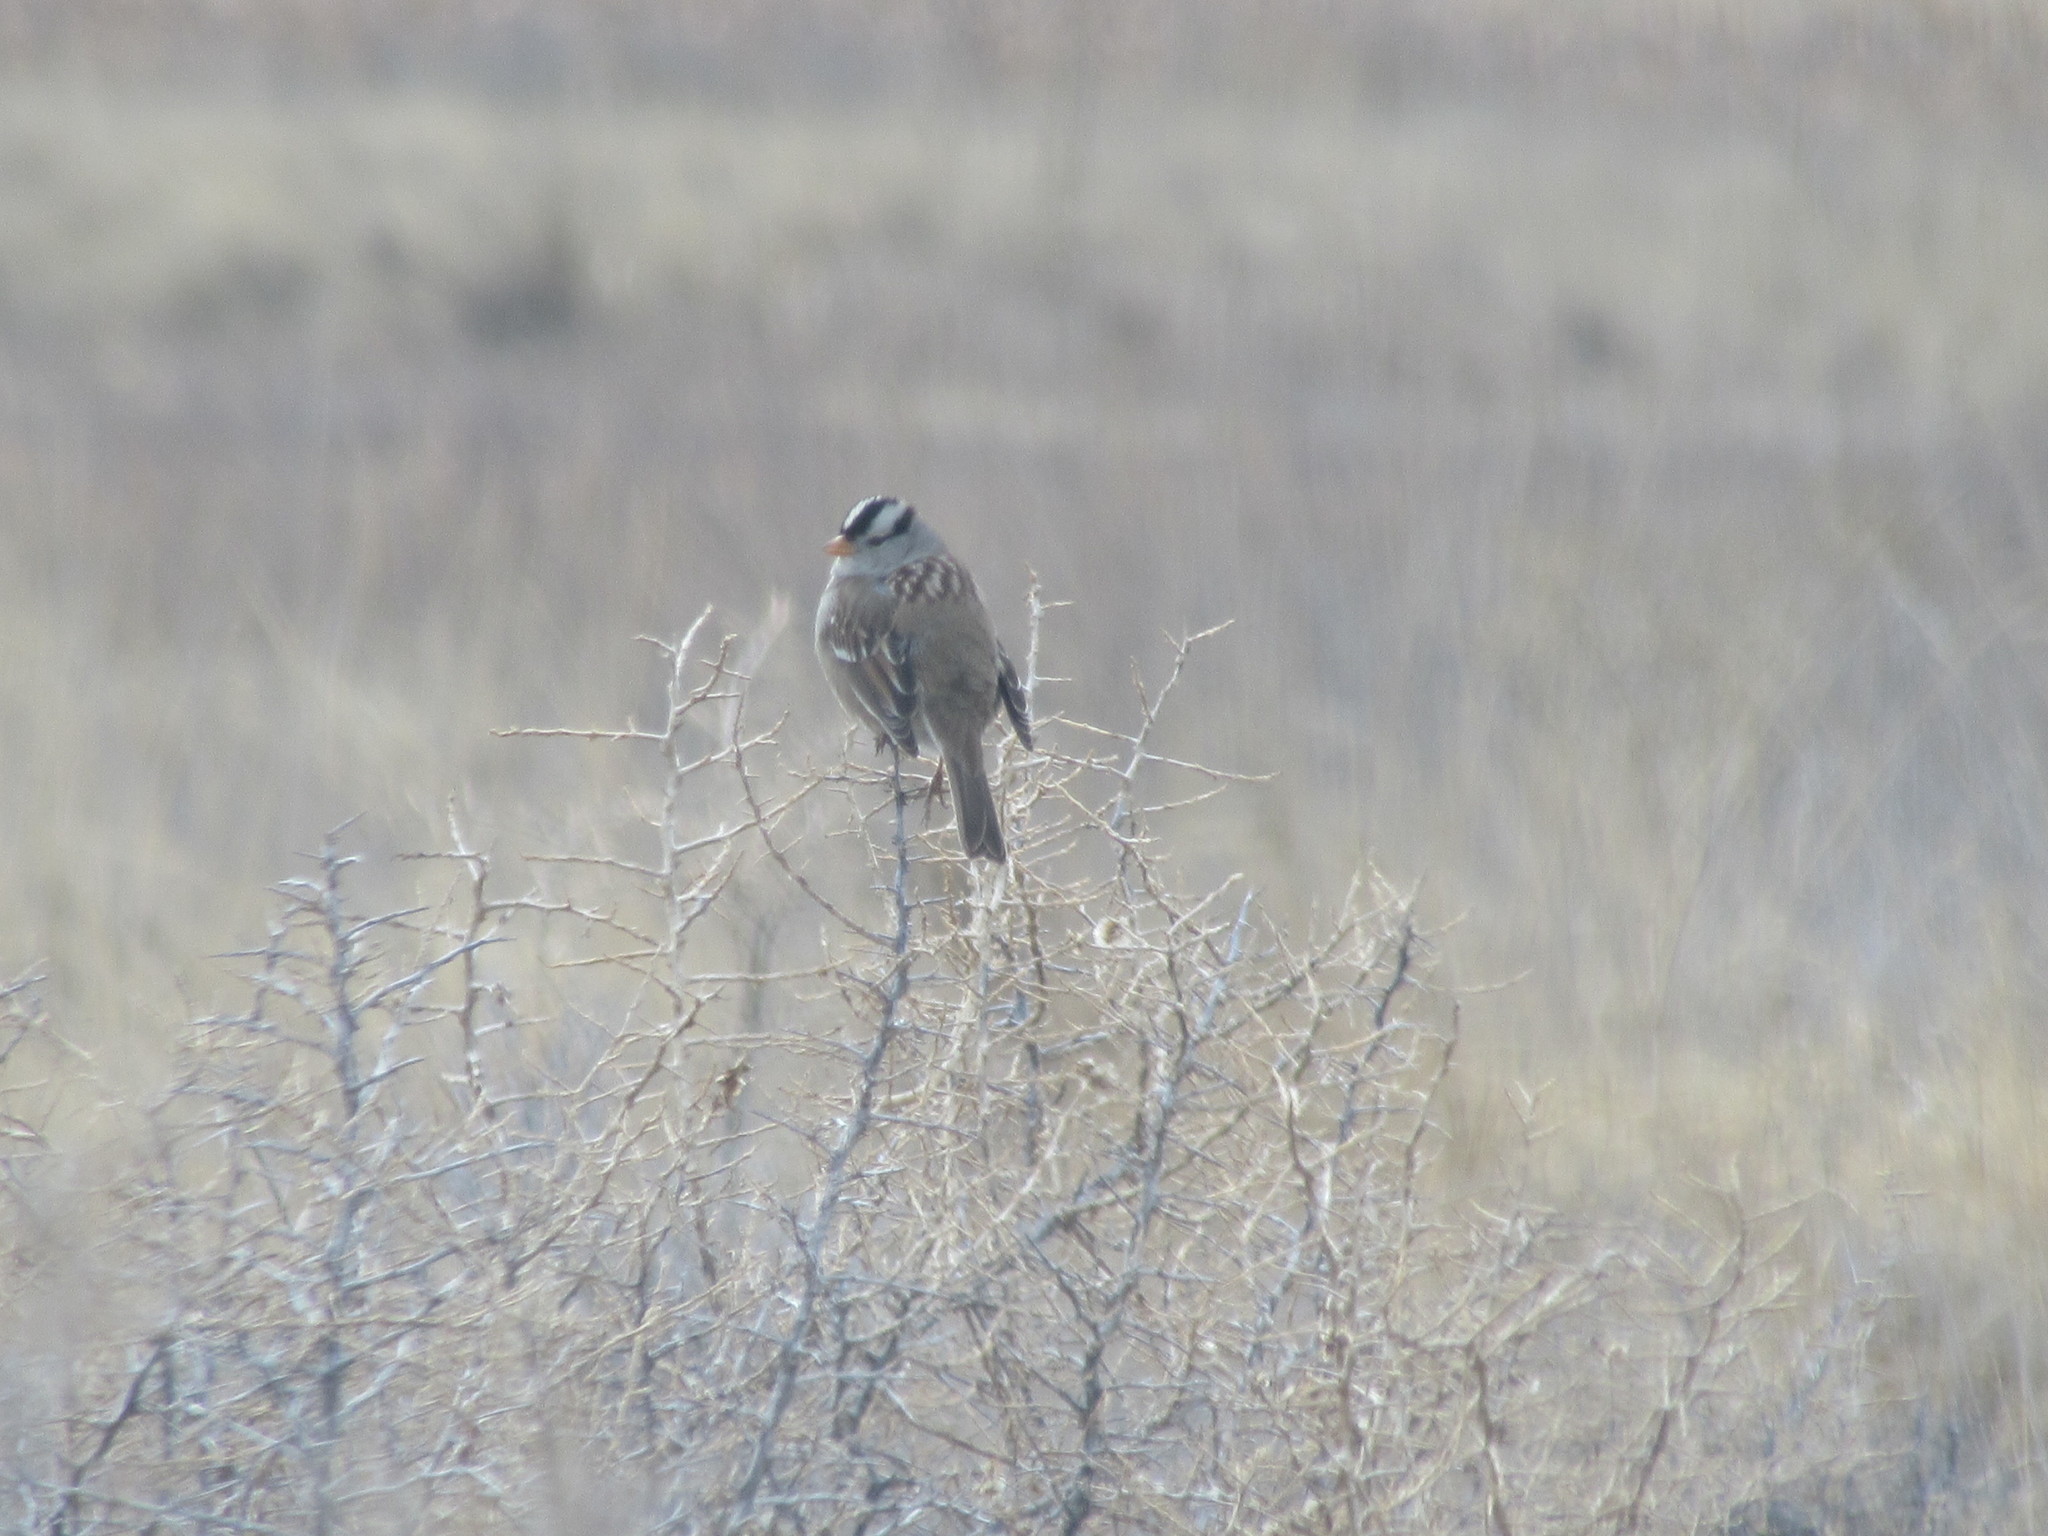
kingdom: Animalia
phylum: Chordata
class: Aves
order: Passeriformes
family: Passerellidae
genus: Zonotrichia
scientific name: Zonotrichia leucophrys
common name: White-crowned sparrow
